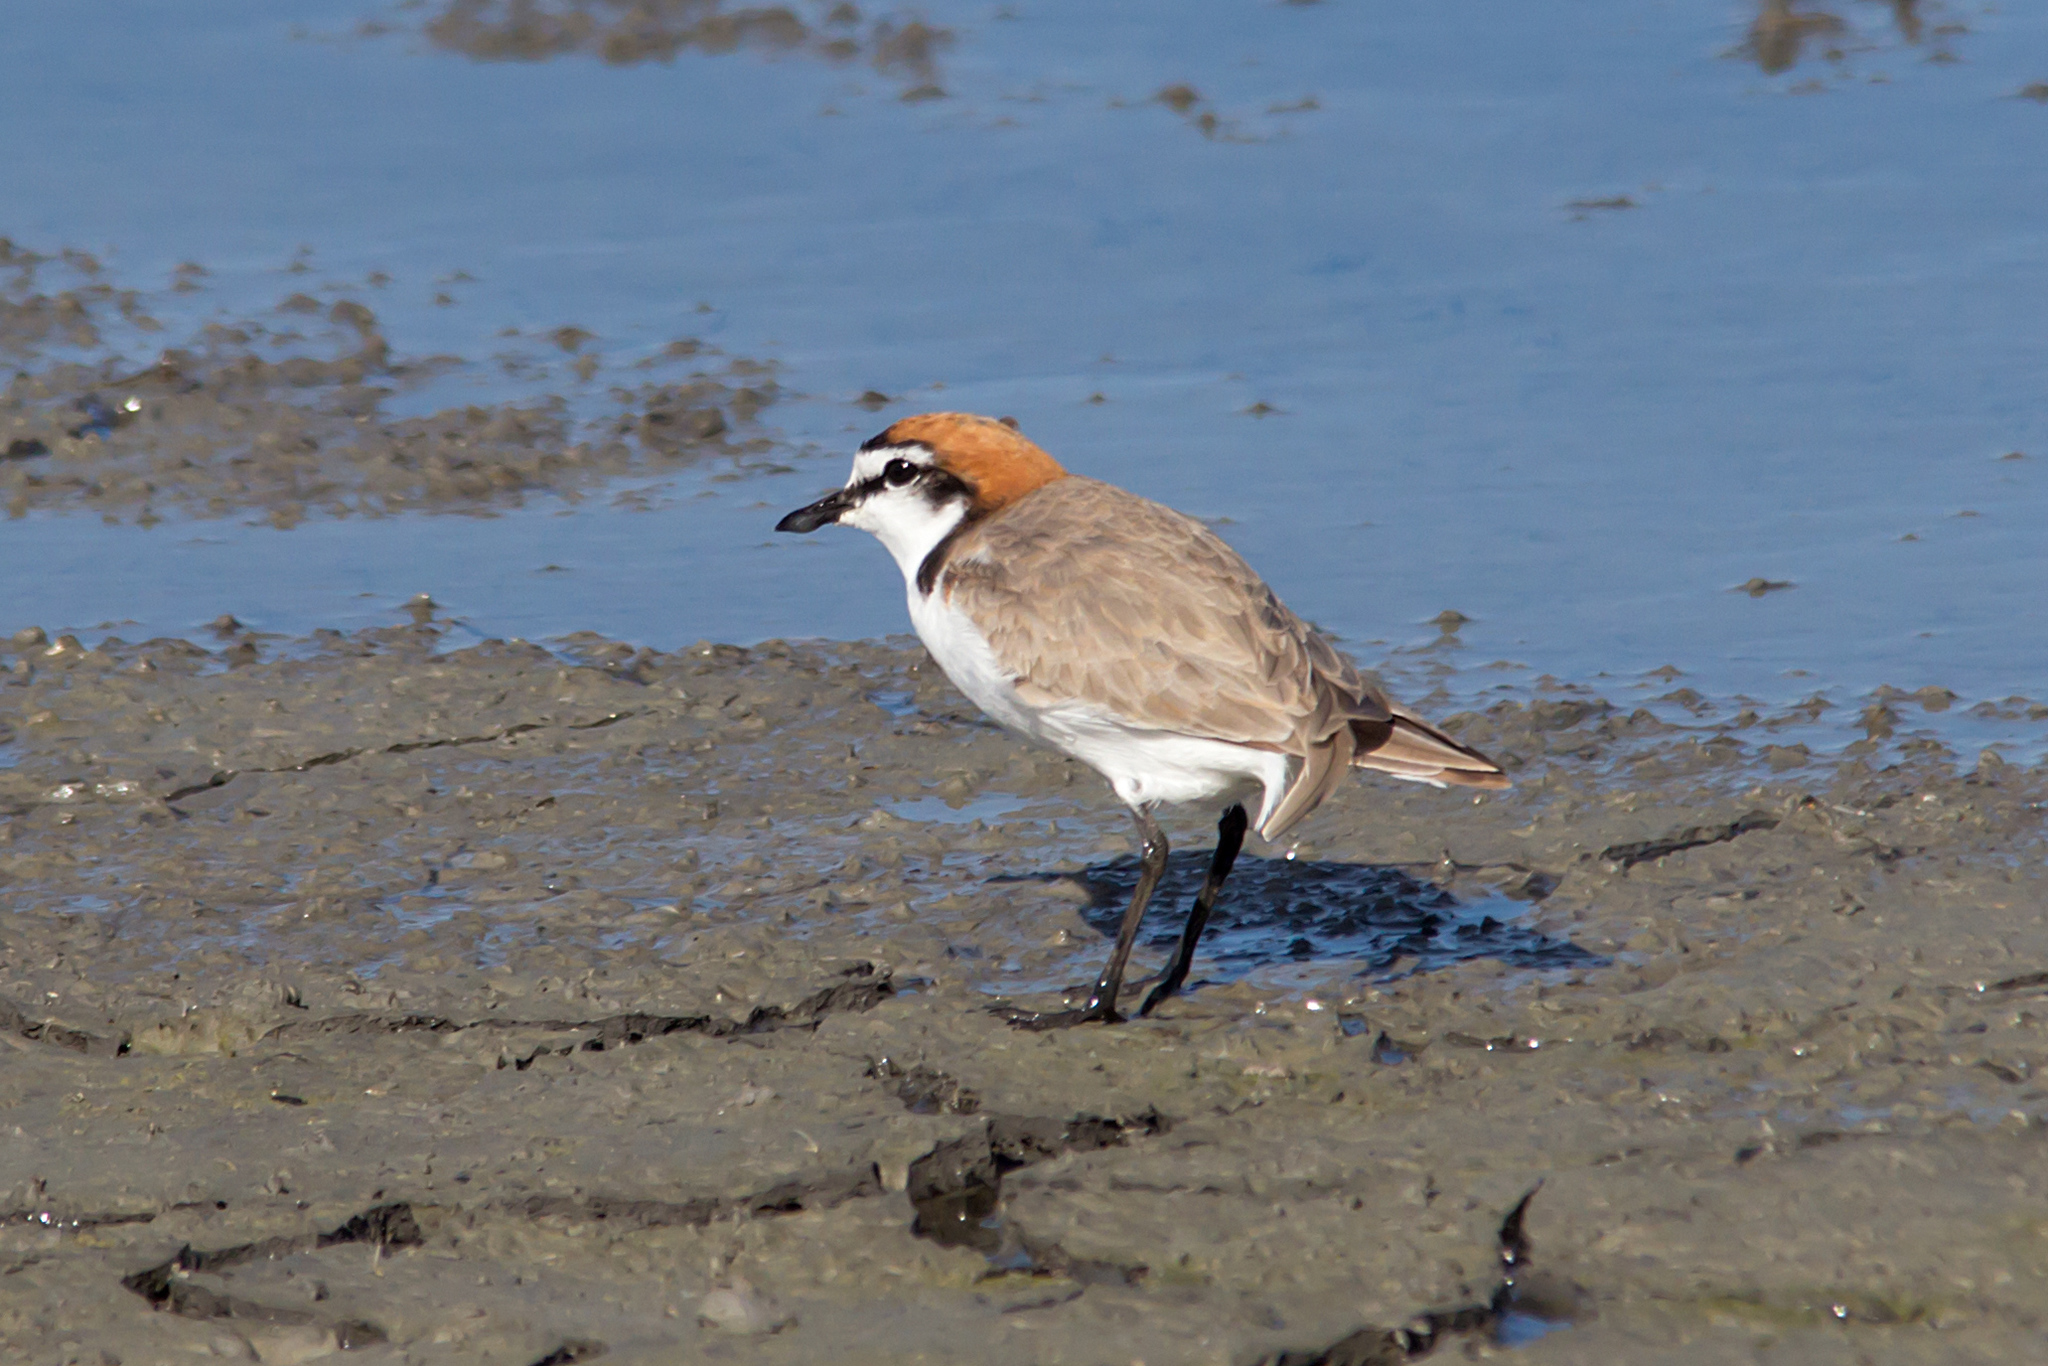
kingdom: Animalia
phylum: Chordata
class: Aves
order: Charadriiformes
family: Charadriidae
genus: Anarhynchus
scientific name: Anarhynchus
